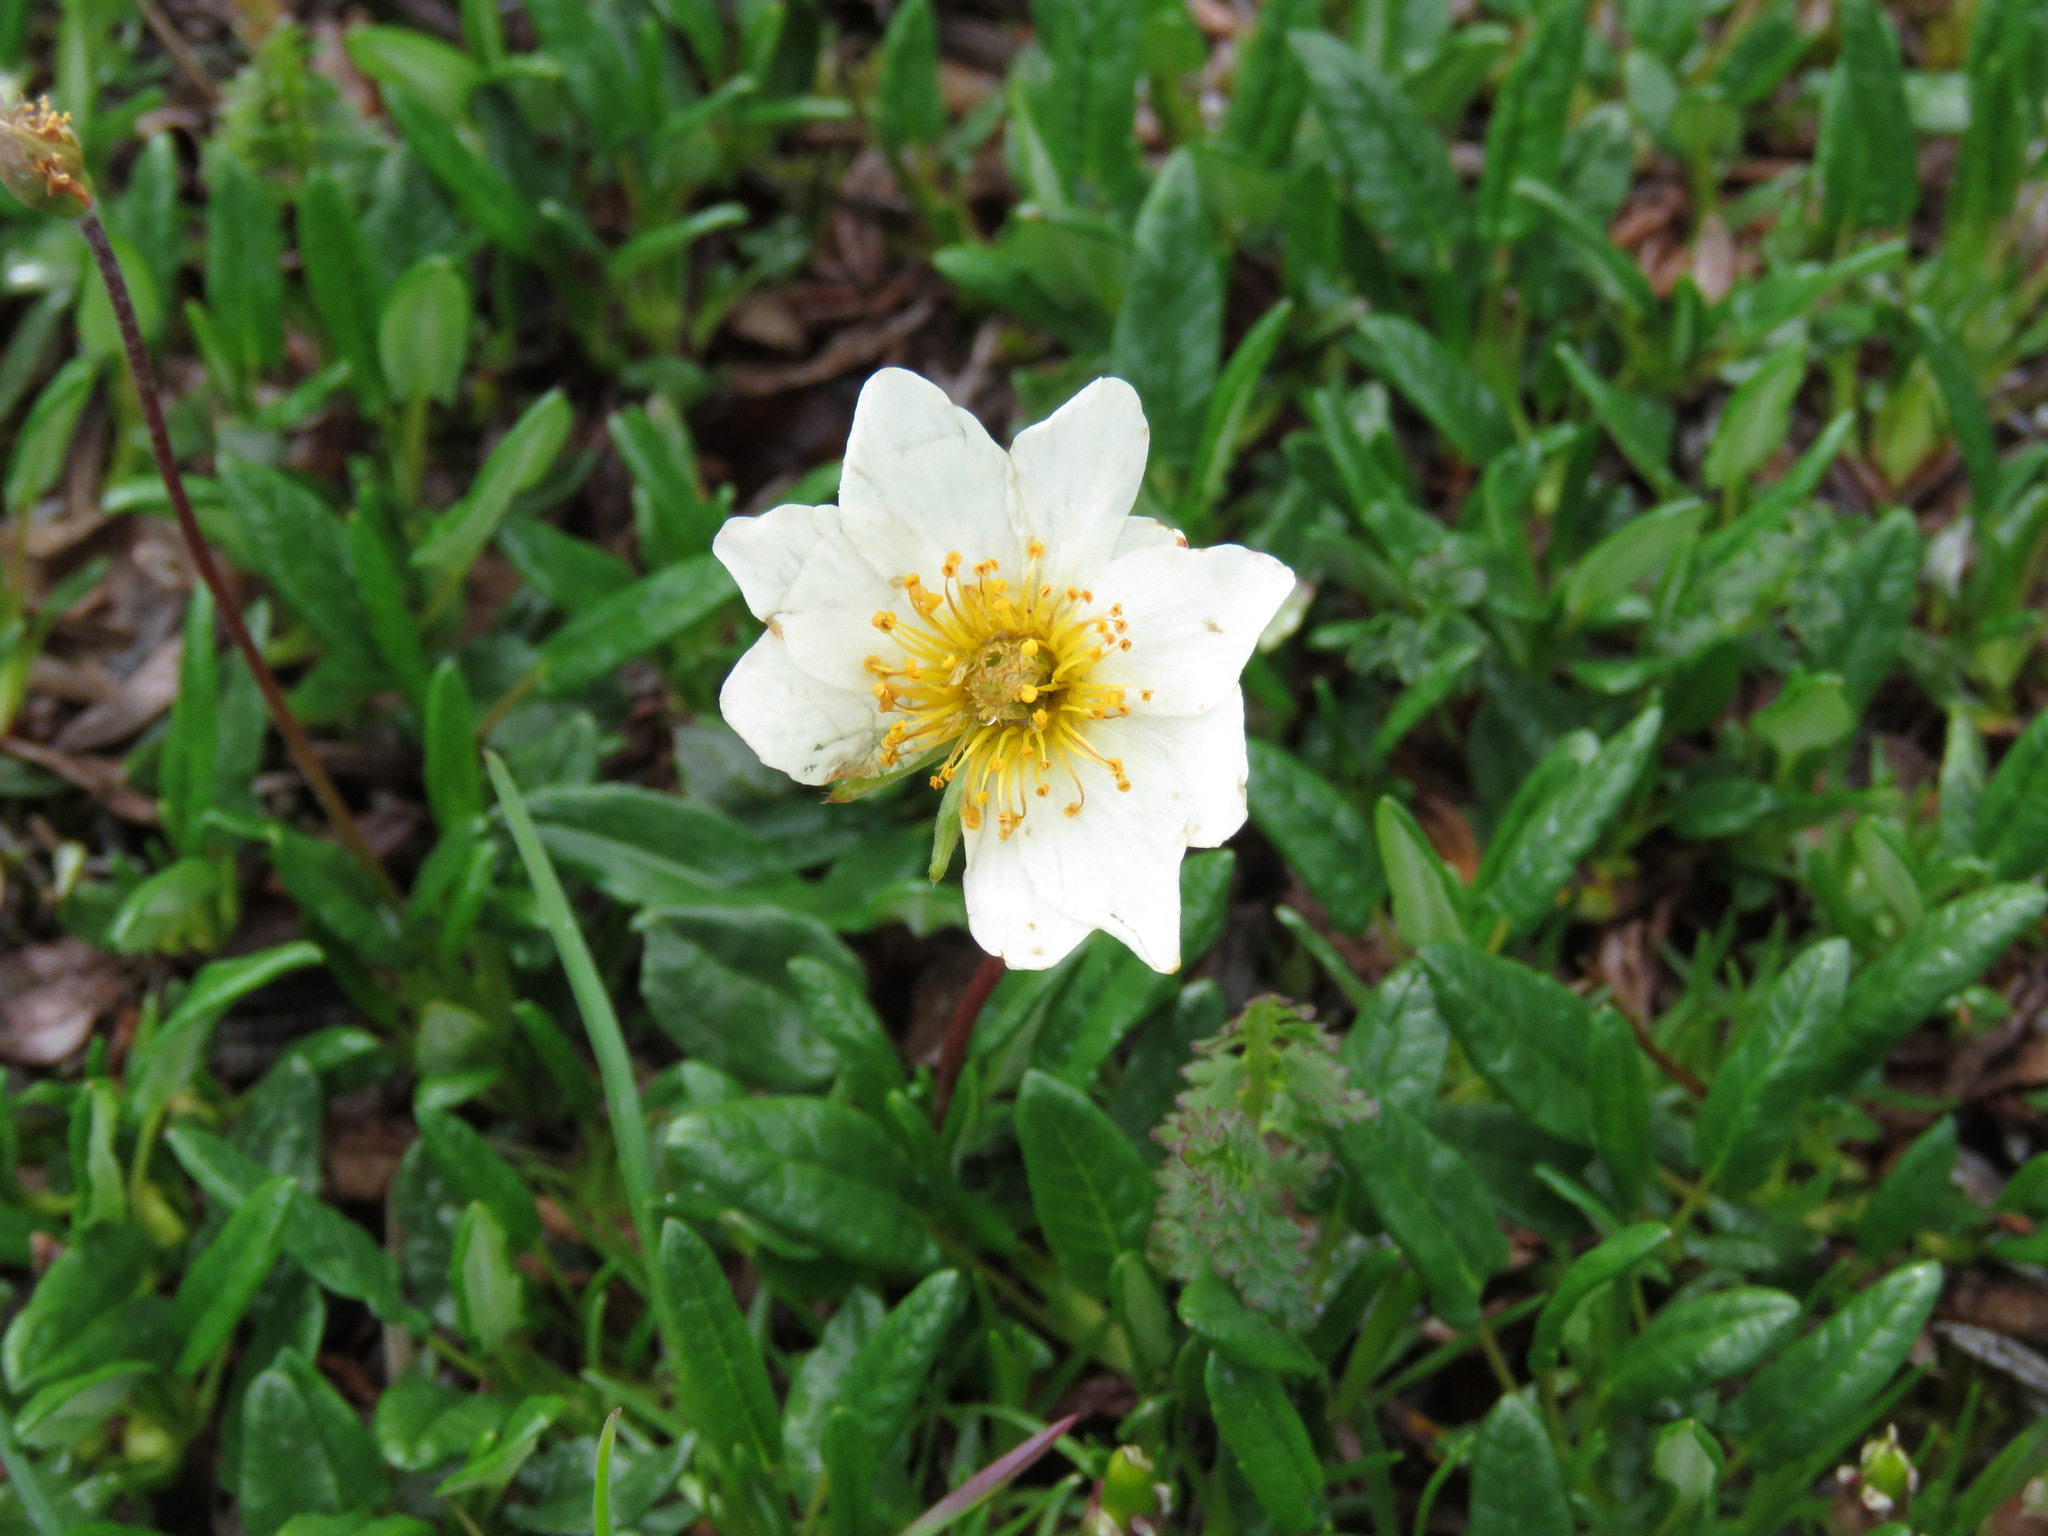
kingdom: Plantae
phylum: Tracheophyta
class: Magnoliopsida
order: Rosales
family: Rosaceae
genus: Dryas
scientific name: Dryas integrifolia
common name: Entire-leaved mountain avens
